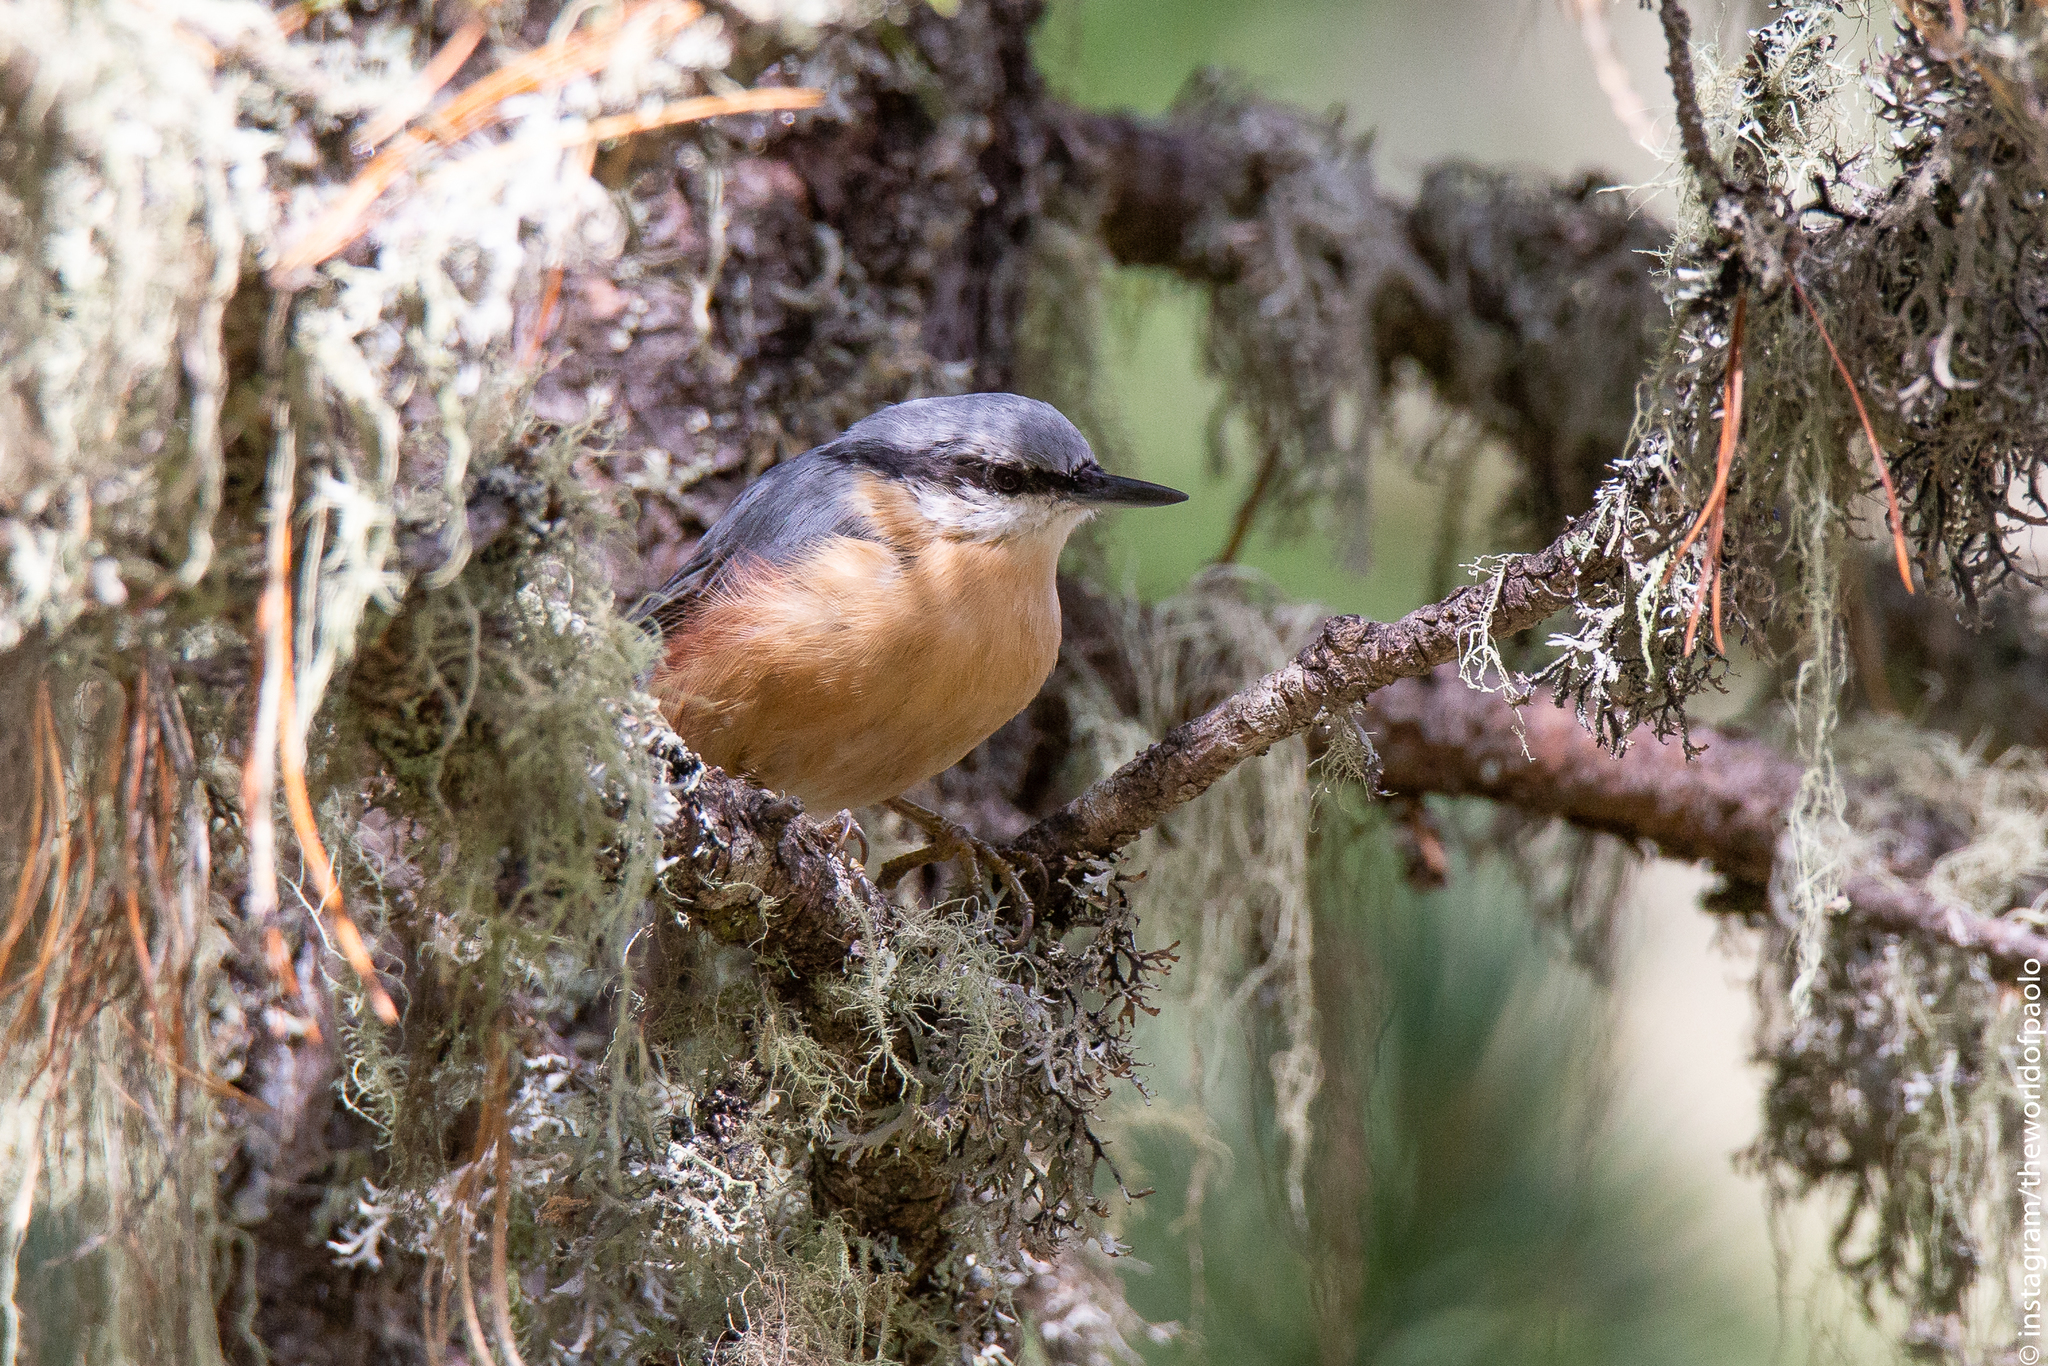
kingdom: Animalia
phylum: Chordata
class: Aves
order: Passeriformes
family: Sittidae
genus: Sitta
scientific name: Sitta europaea
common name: Eurasian nuthatch
